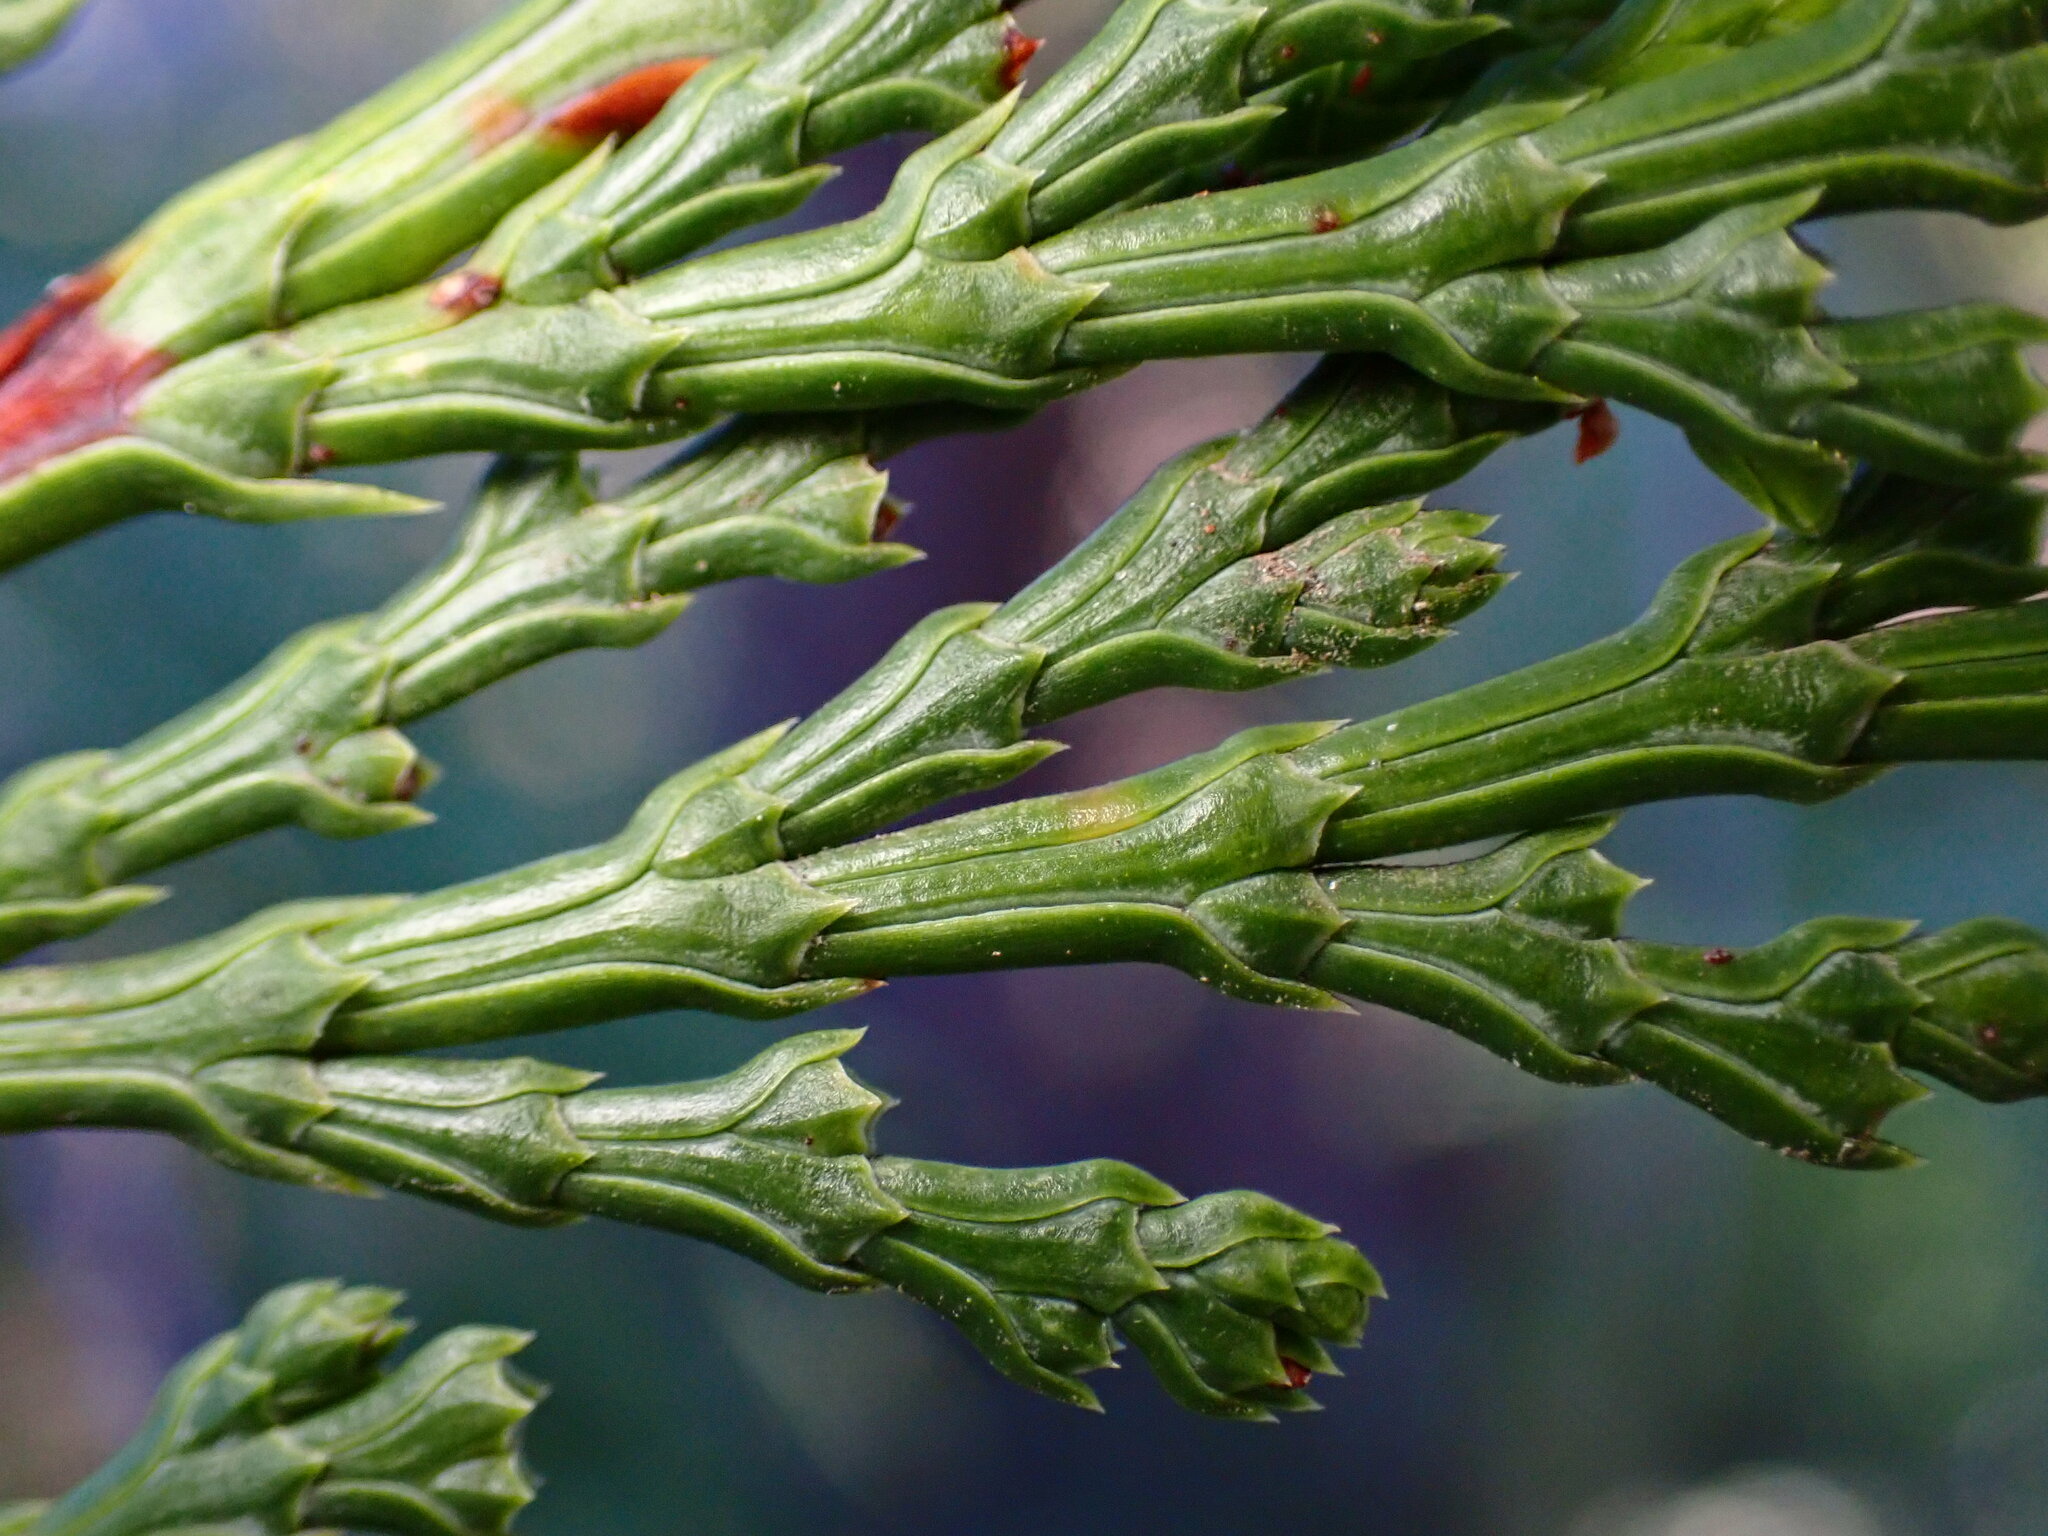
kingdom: Plantae
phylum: Tracheophyta
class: Pinopsida
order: Pinales
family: Cupressaceae
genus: Calocedrus
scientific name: Calocedrus decurrens
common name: Californian incense-cedar
